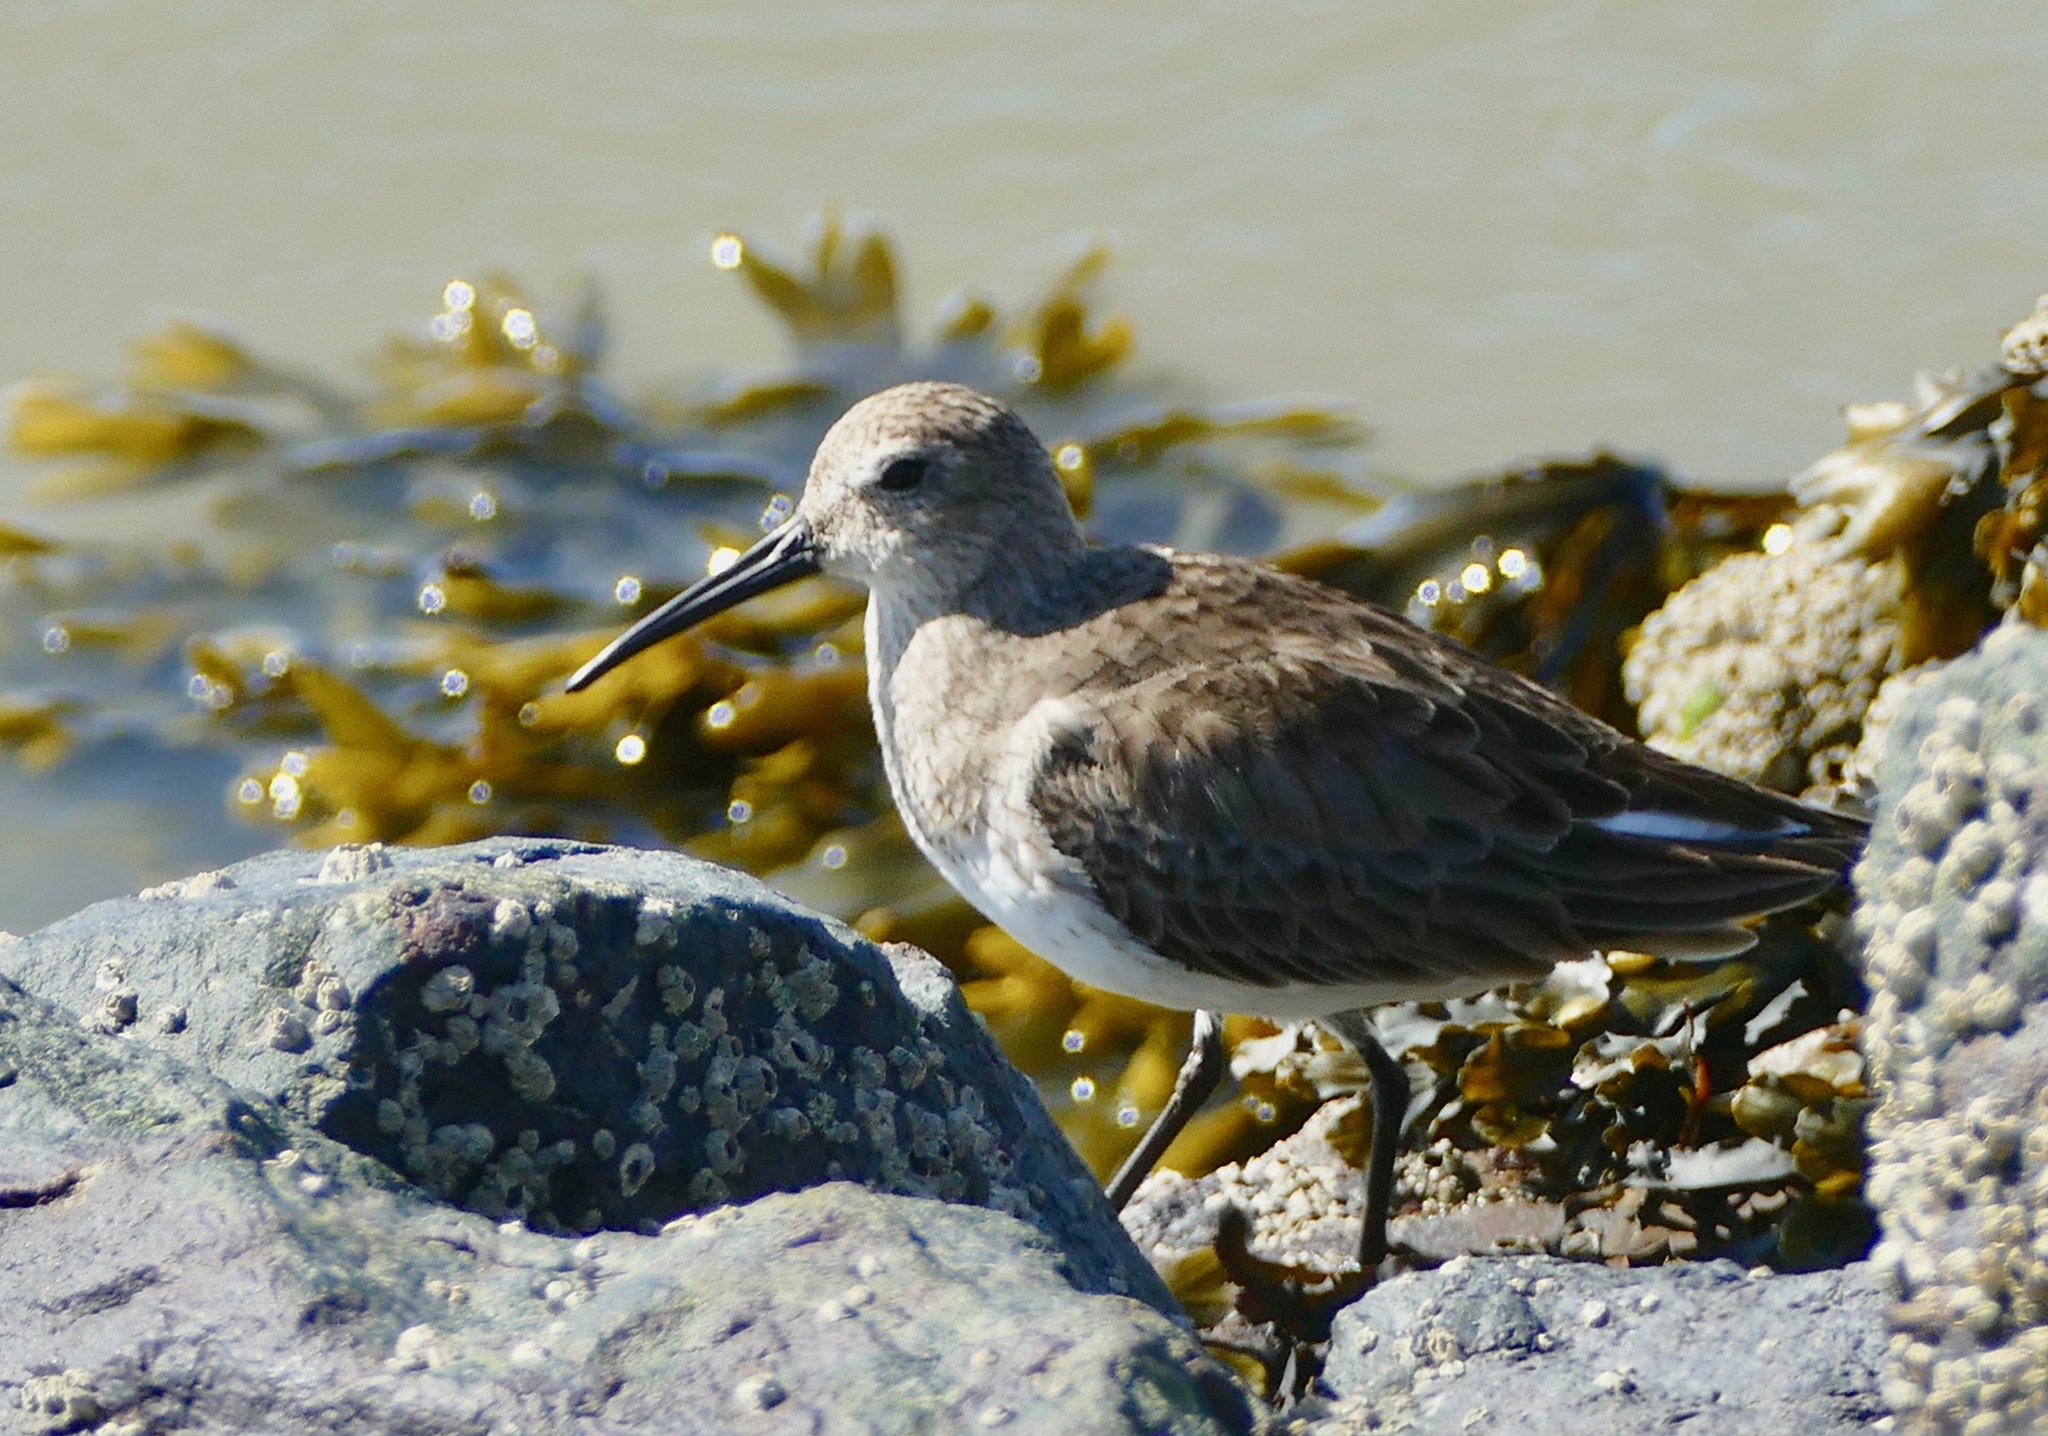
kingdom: Animalia
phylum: Chordata
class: Aves
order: Charadriiformes
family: Scolopacidae
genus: Calidris
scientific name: Calidris alpina
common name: Dunlin
